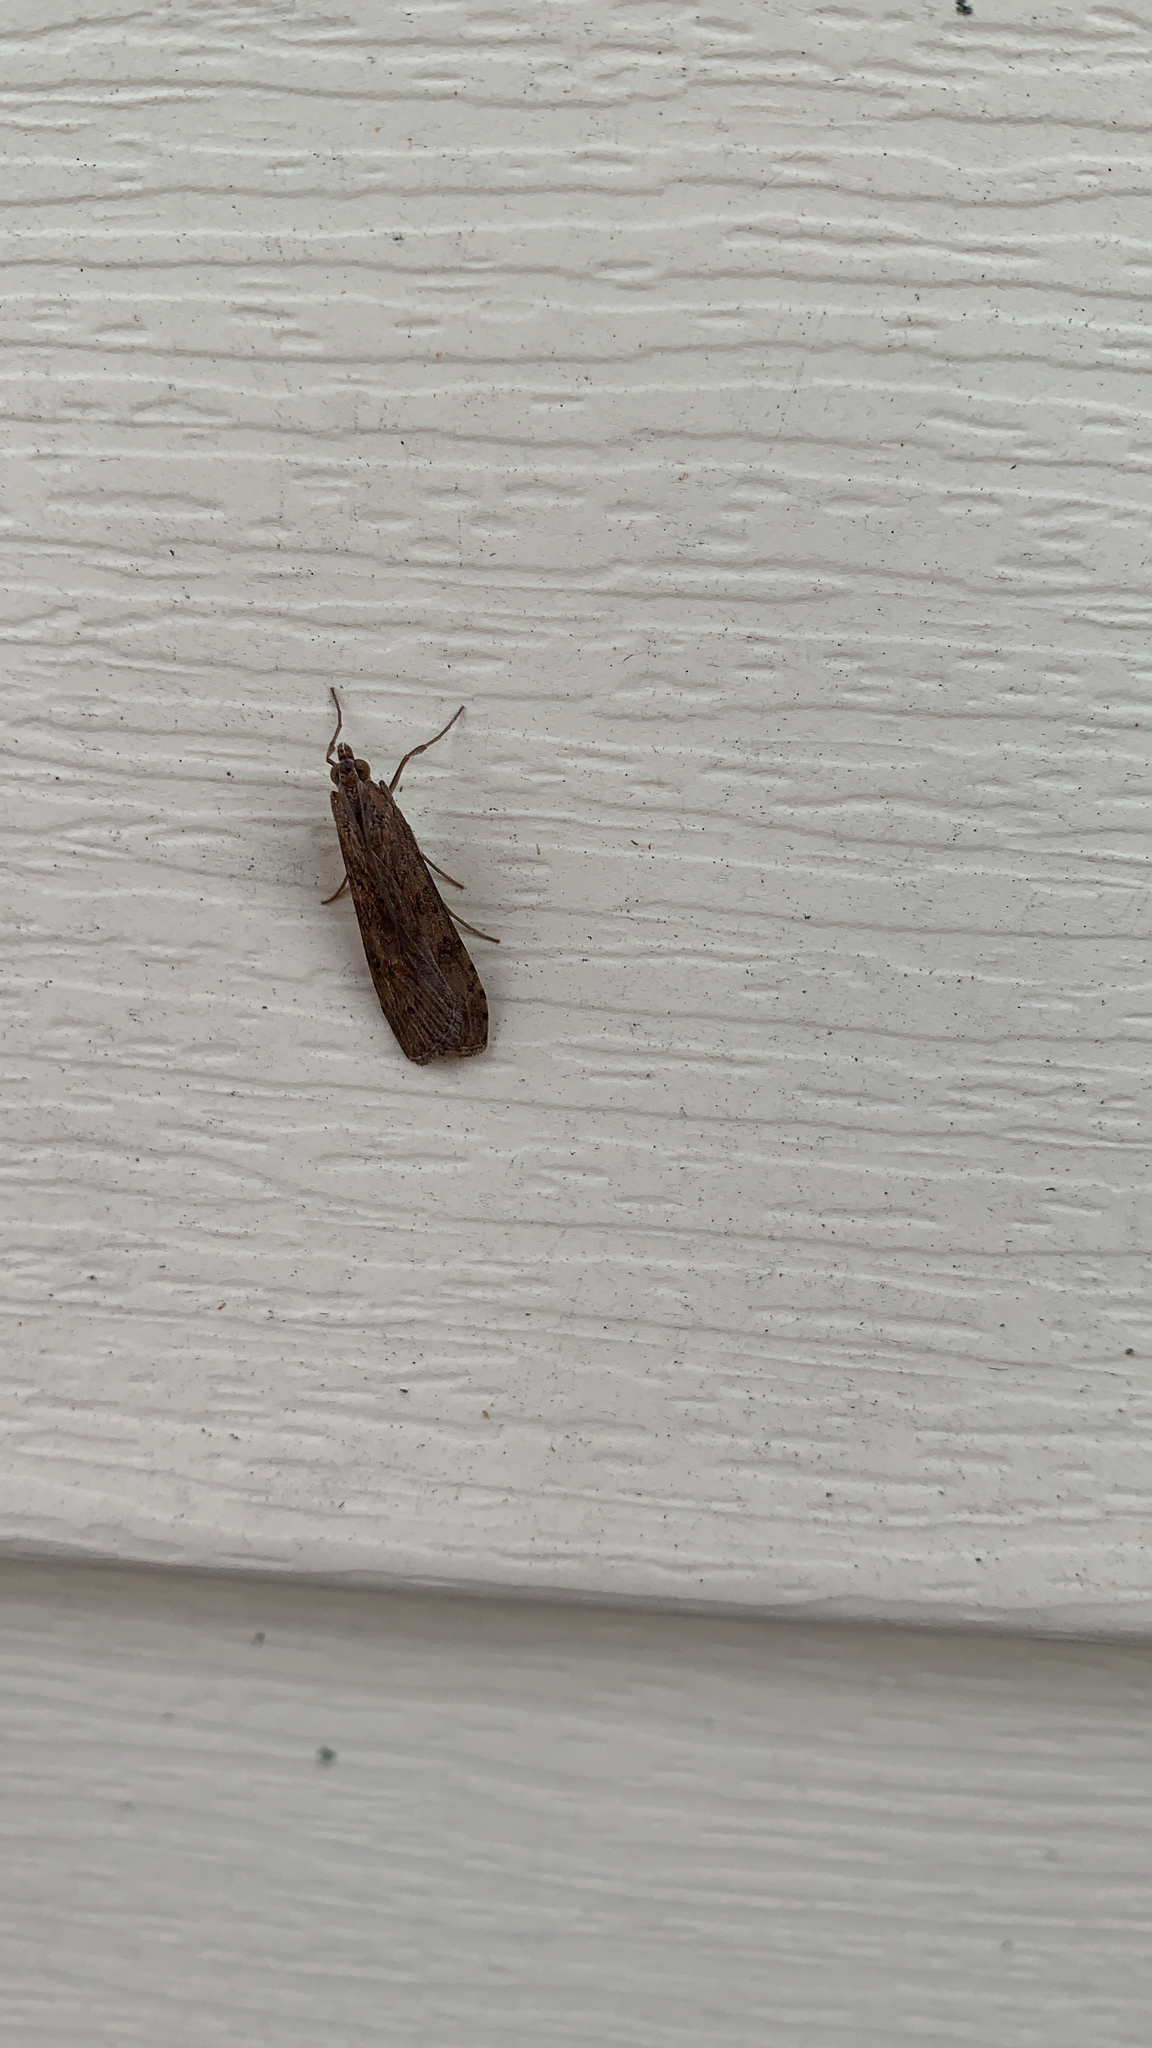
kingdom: Animalia
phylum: Arthropoda
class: Insecta
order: Lepidoptera
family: Crambidae
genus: Nomophila
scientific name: Nomophila nearctica
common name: American rush veneer
